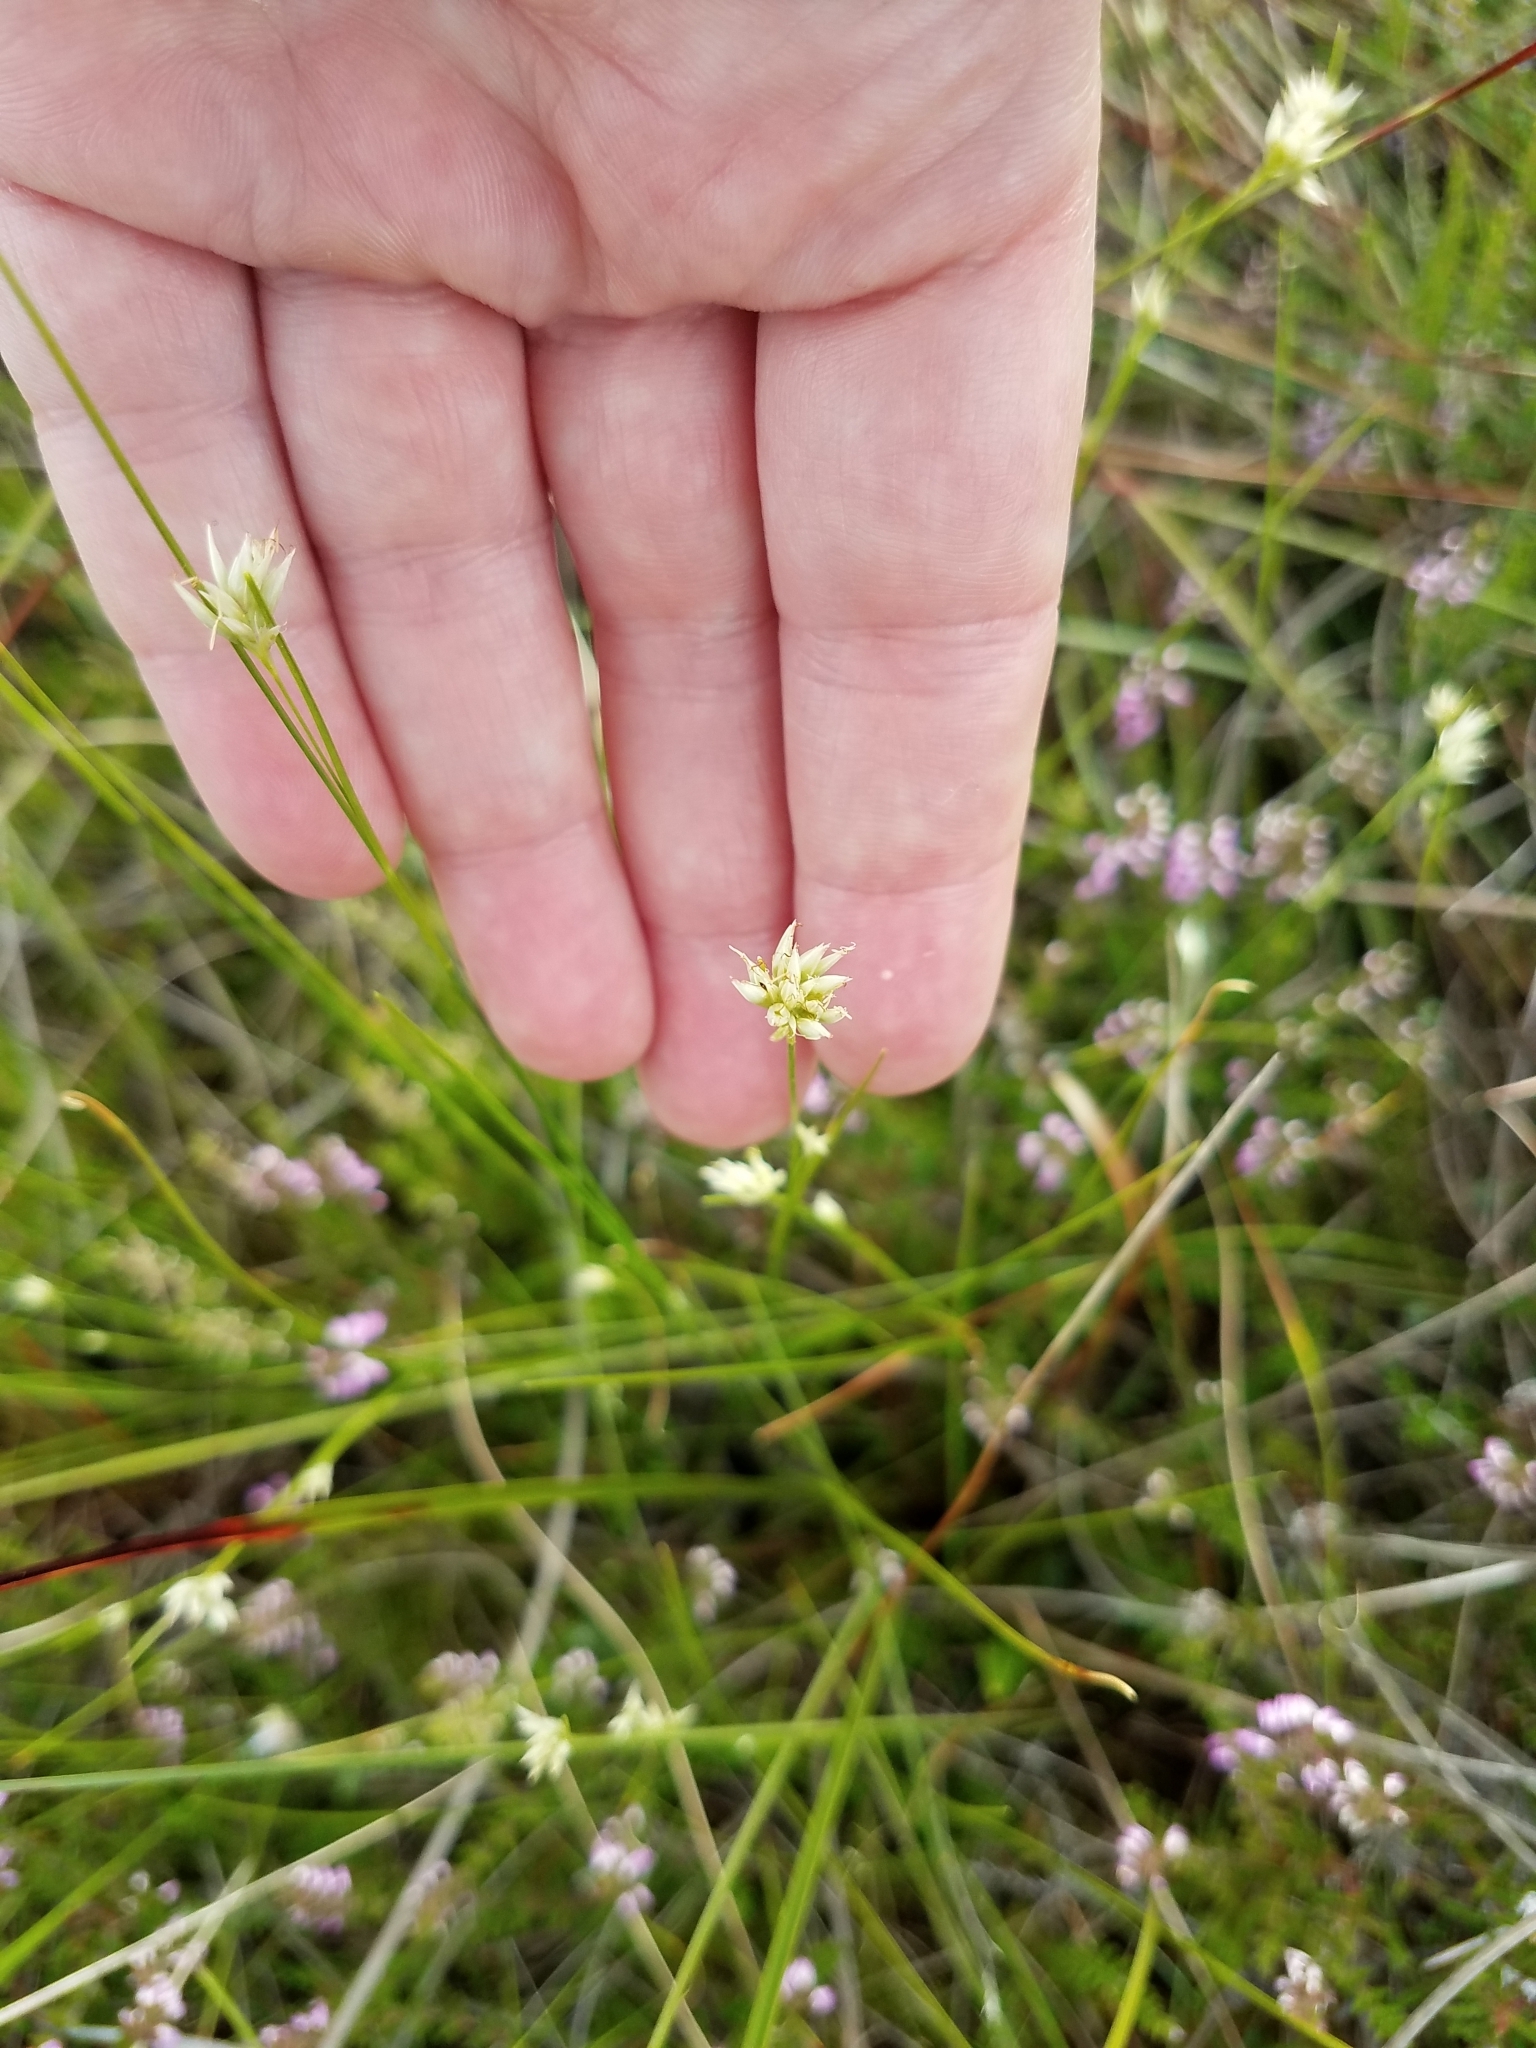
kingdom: Plantae
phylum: Tracheophyta
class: Liliopsida
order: Poales
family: Cyperaceae
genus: Rhynchospora
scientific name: Rhynchospora alba
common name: White beak-sedge
